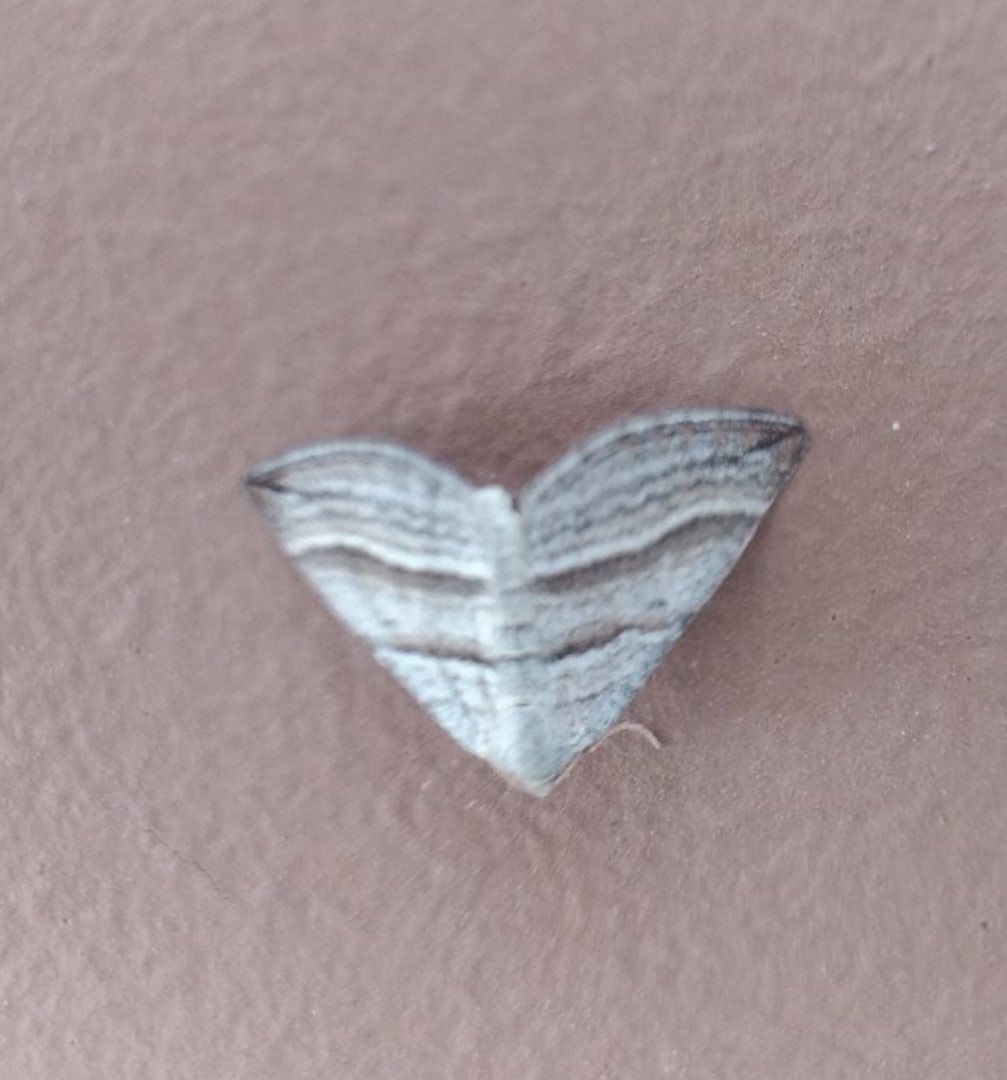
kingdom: Animalia
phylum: Arthropoda
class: Insecta
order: Lepidoptera
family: Geometridae
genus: Phibalapteryx
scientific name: Phibalapteryx virgata
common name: Oblique striped
